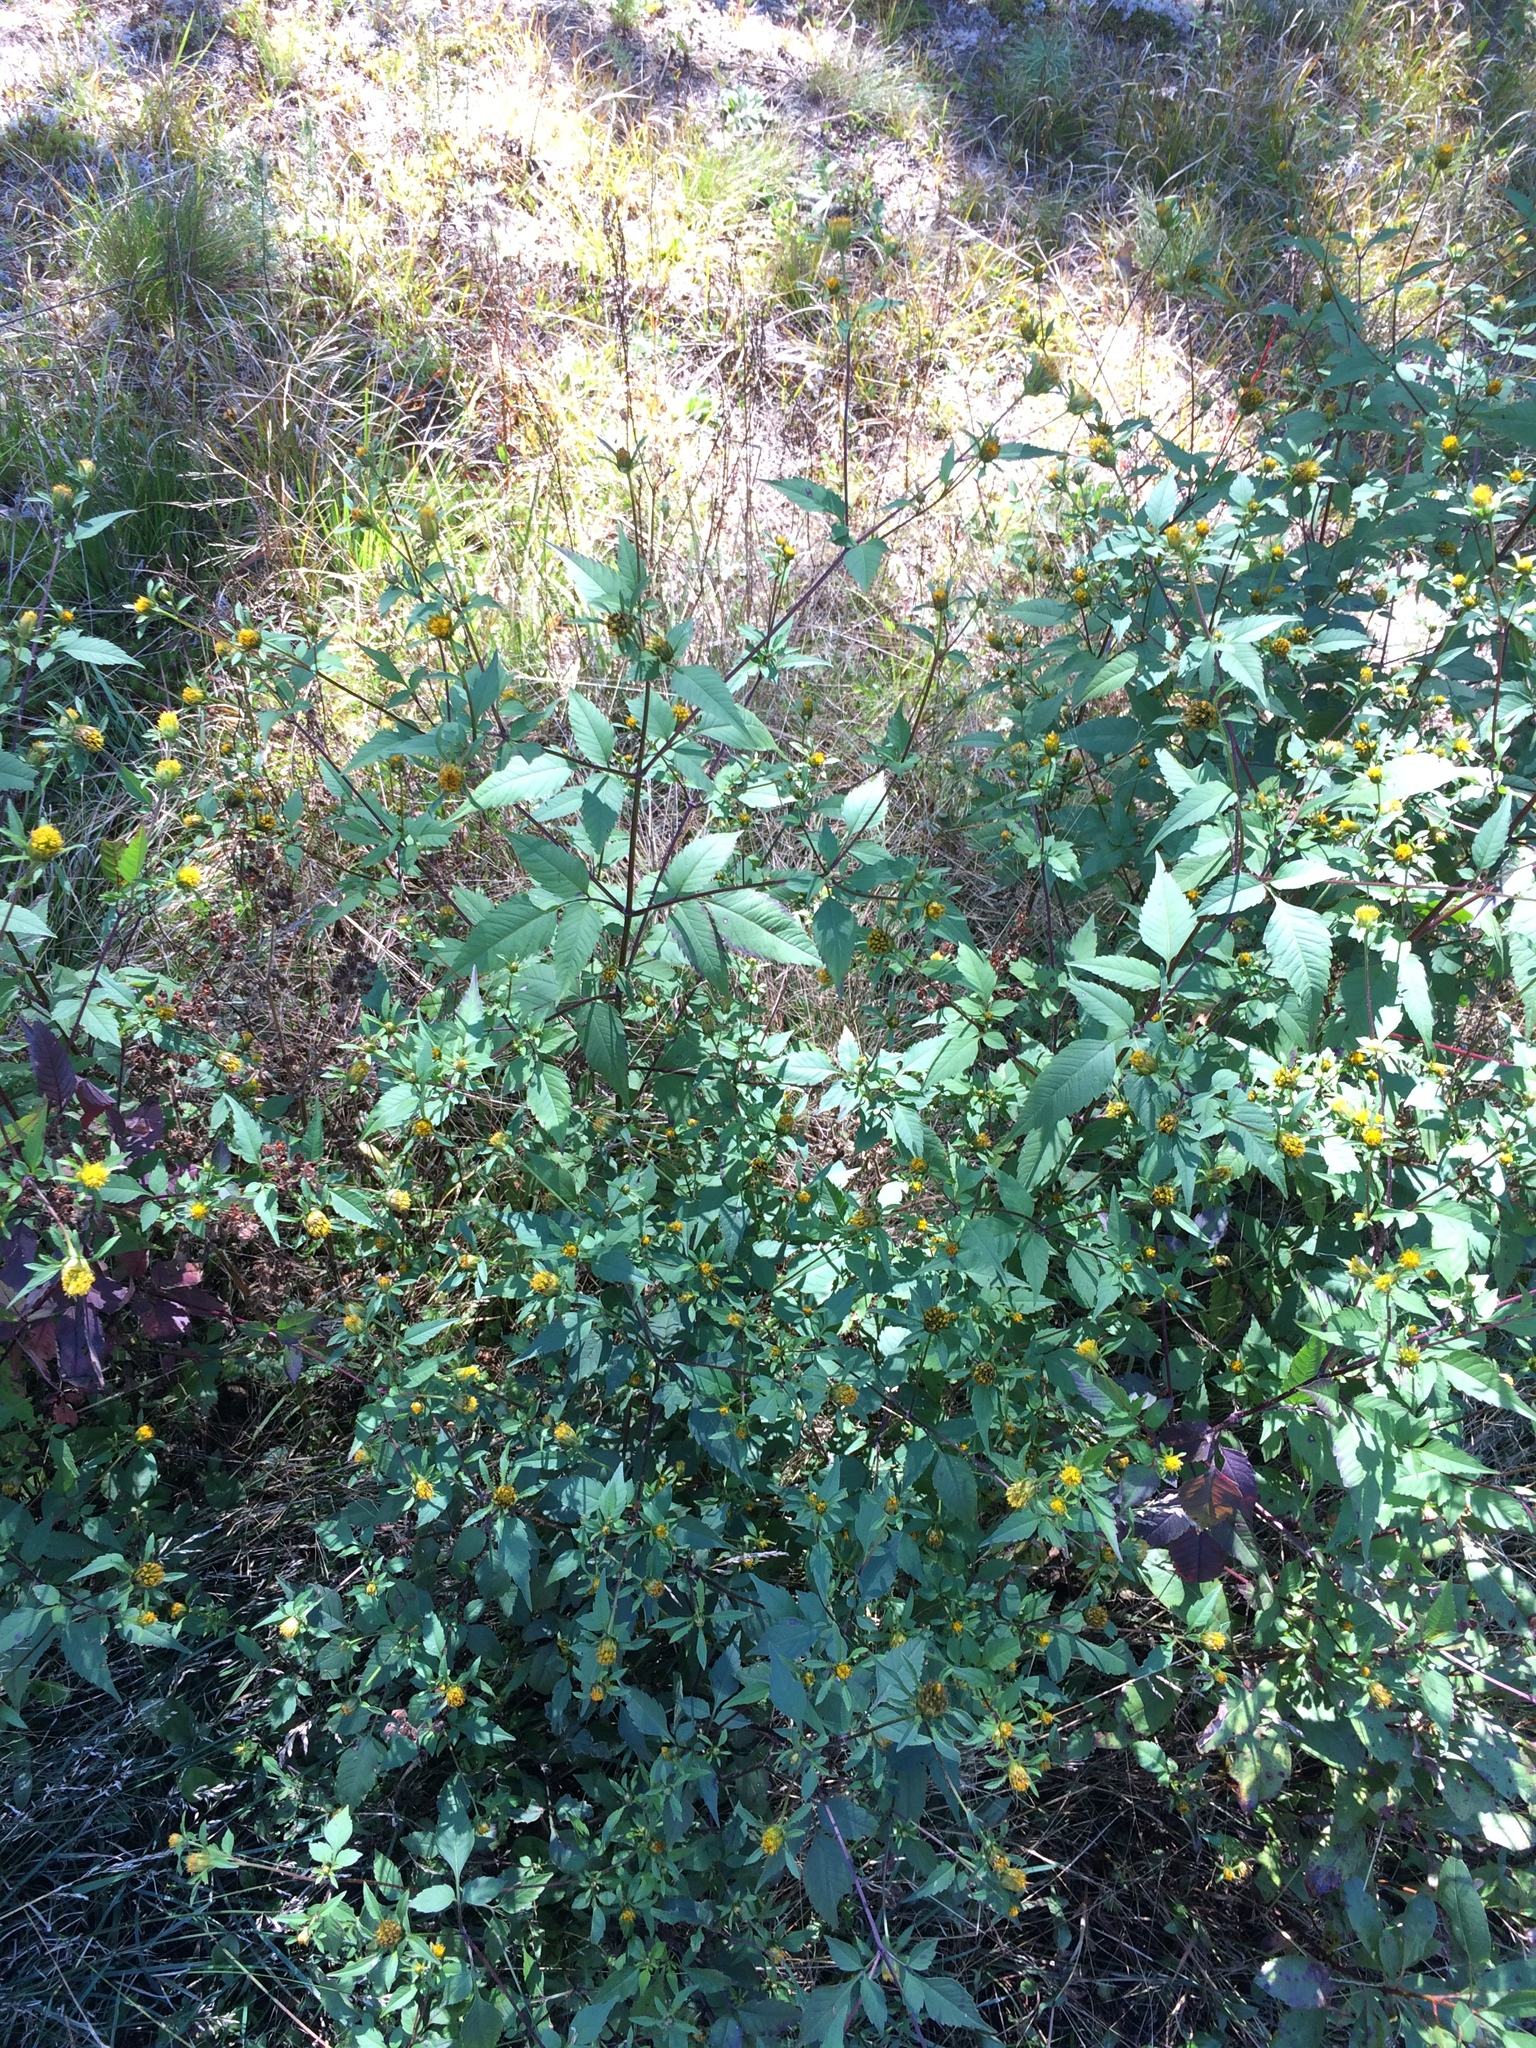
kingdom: Plantae
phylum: Tracheophyta
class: Magnoliopsida
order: Asterales
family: Asteraceae
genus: Bidens
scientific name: Bidens frondosa
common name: Beggarticks
